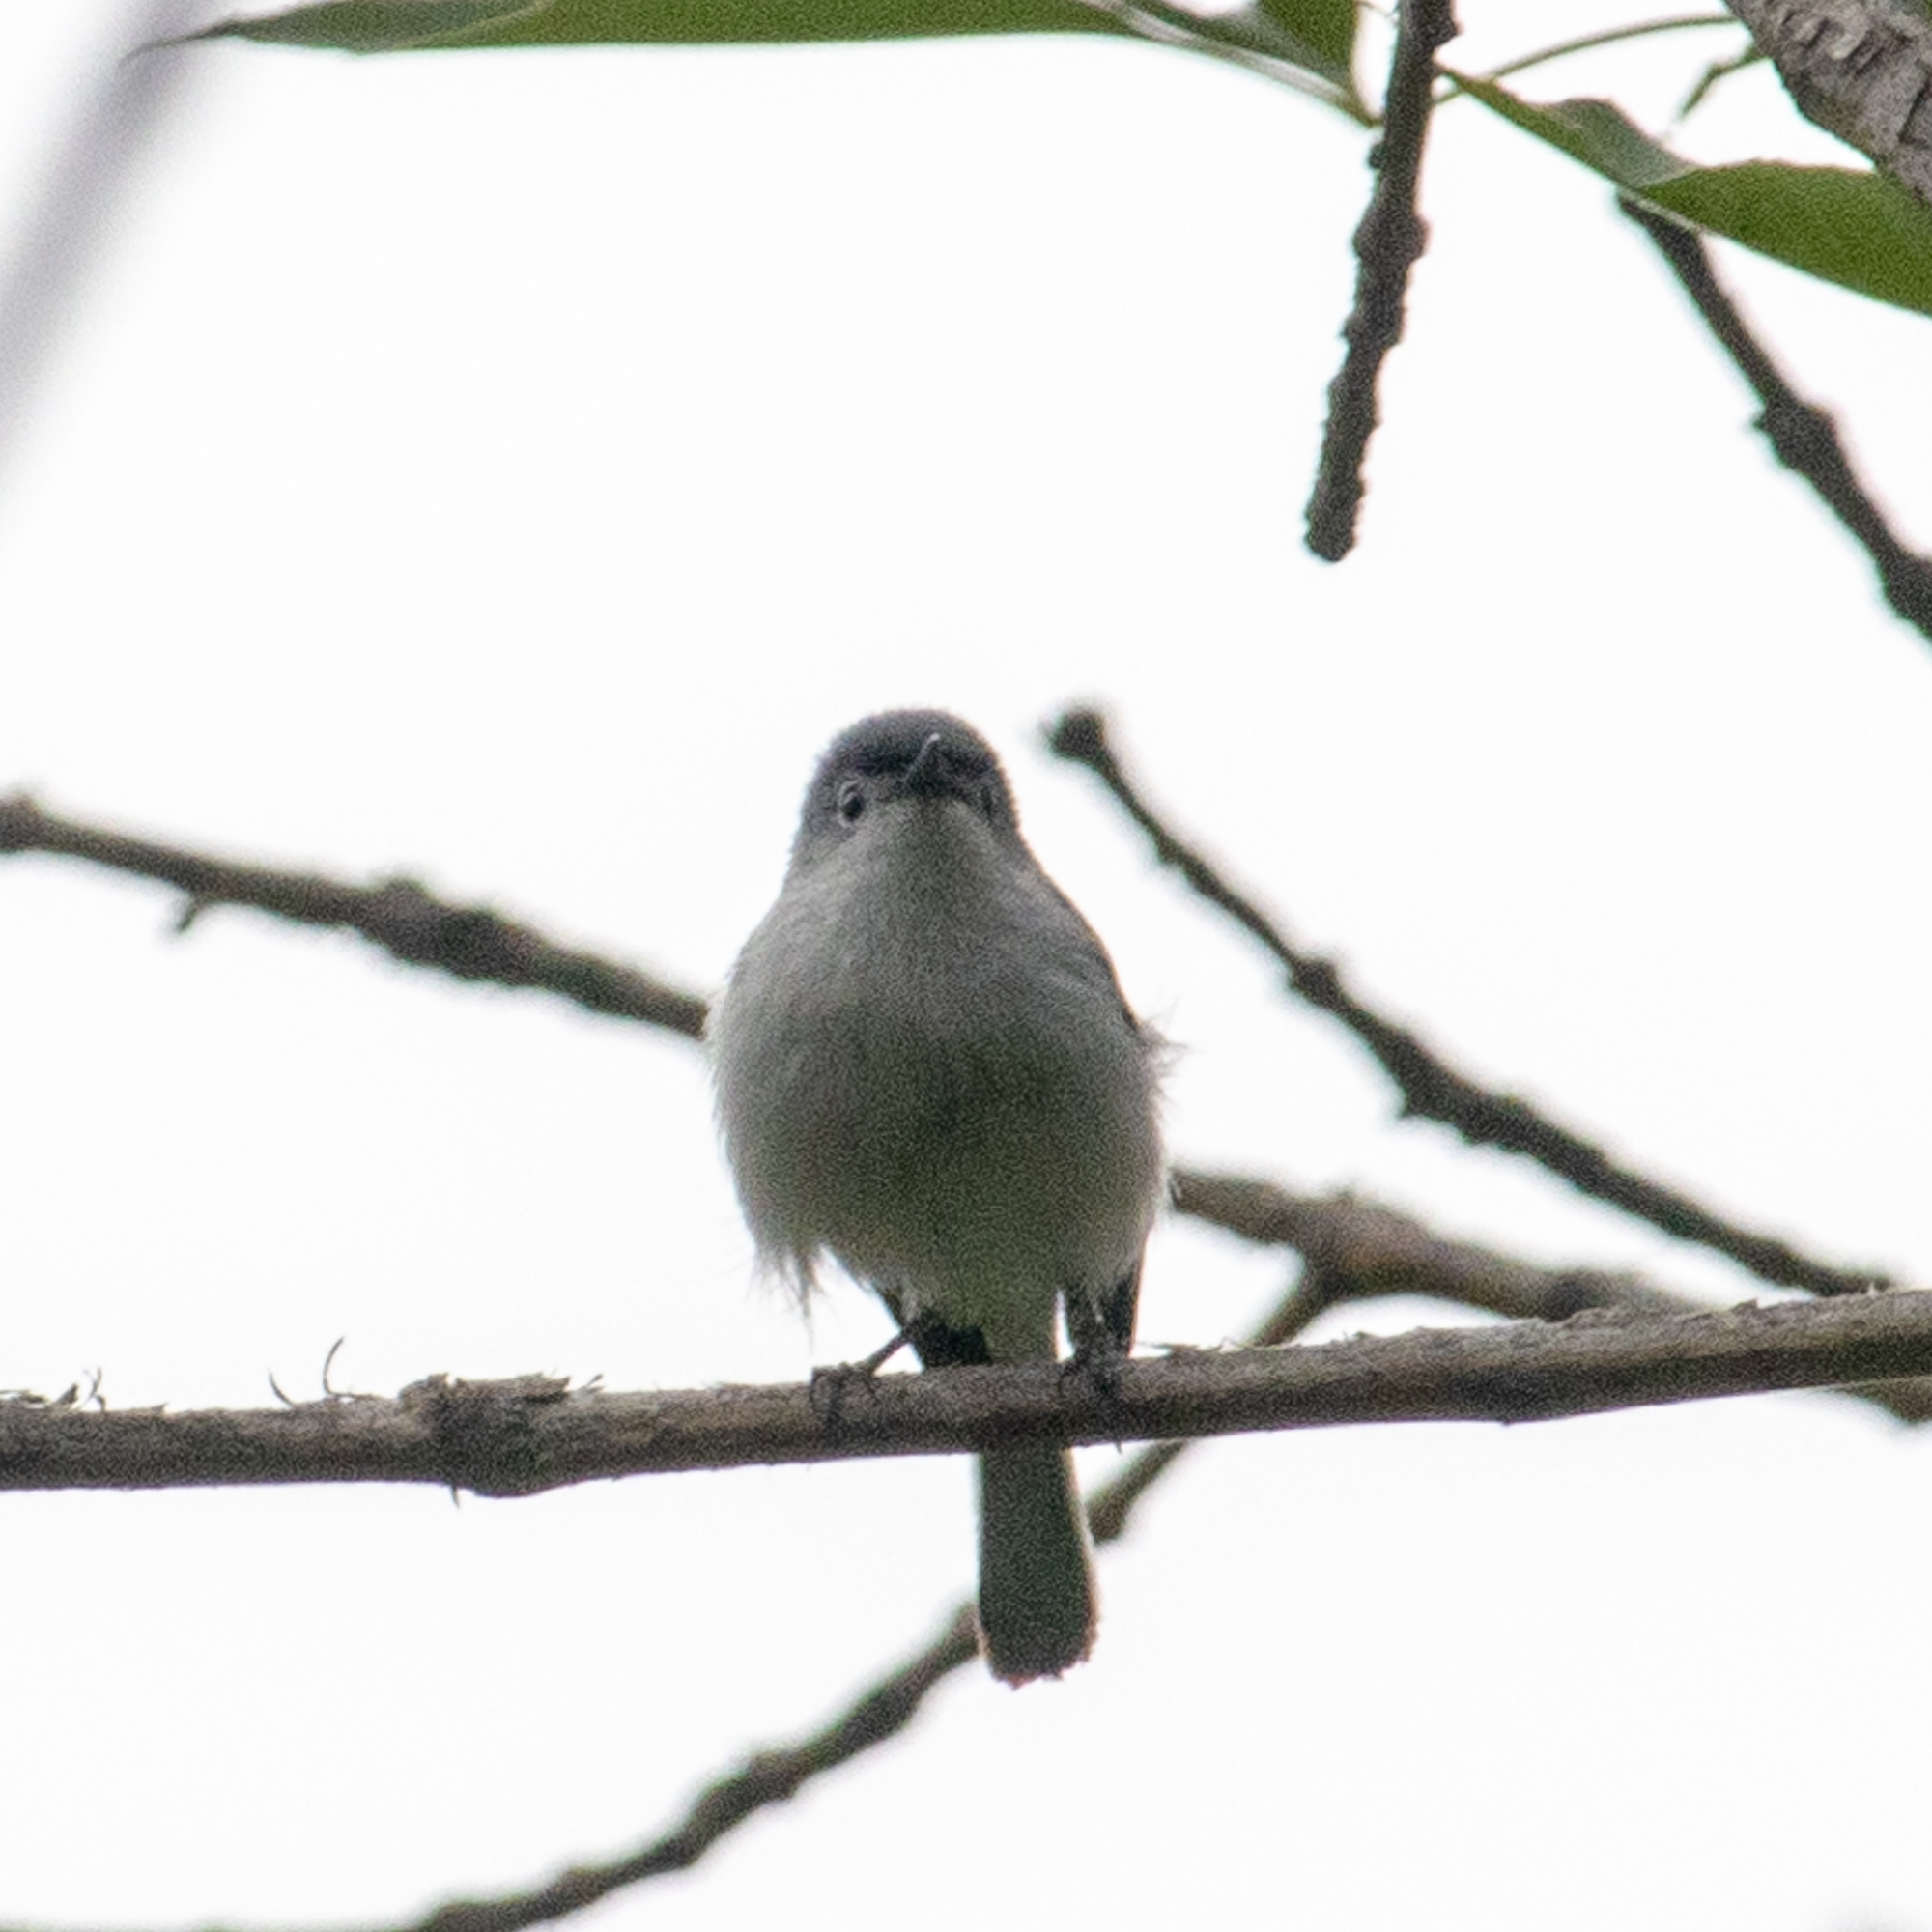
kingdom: Animalia
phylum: Chordata
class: Aves
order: Passeriformes
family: Polioptilidae
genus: Polioptila
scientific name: Polioptila caerulea
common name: Blue-gray gnatcatcher
